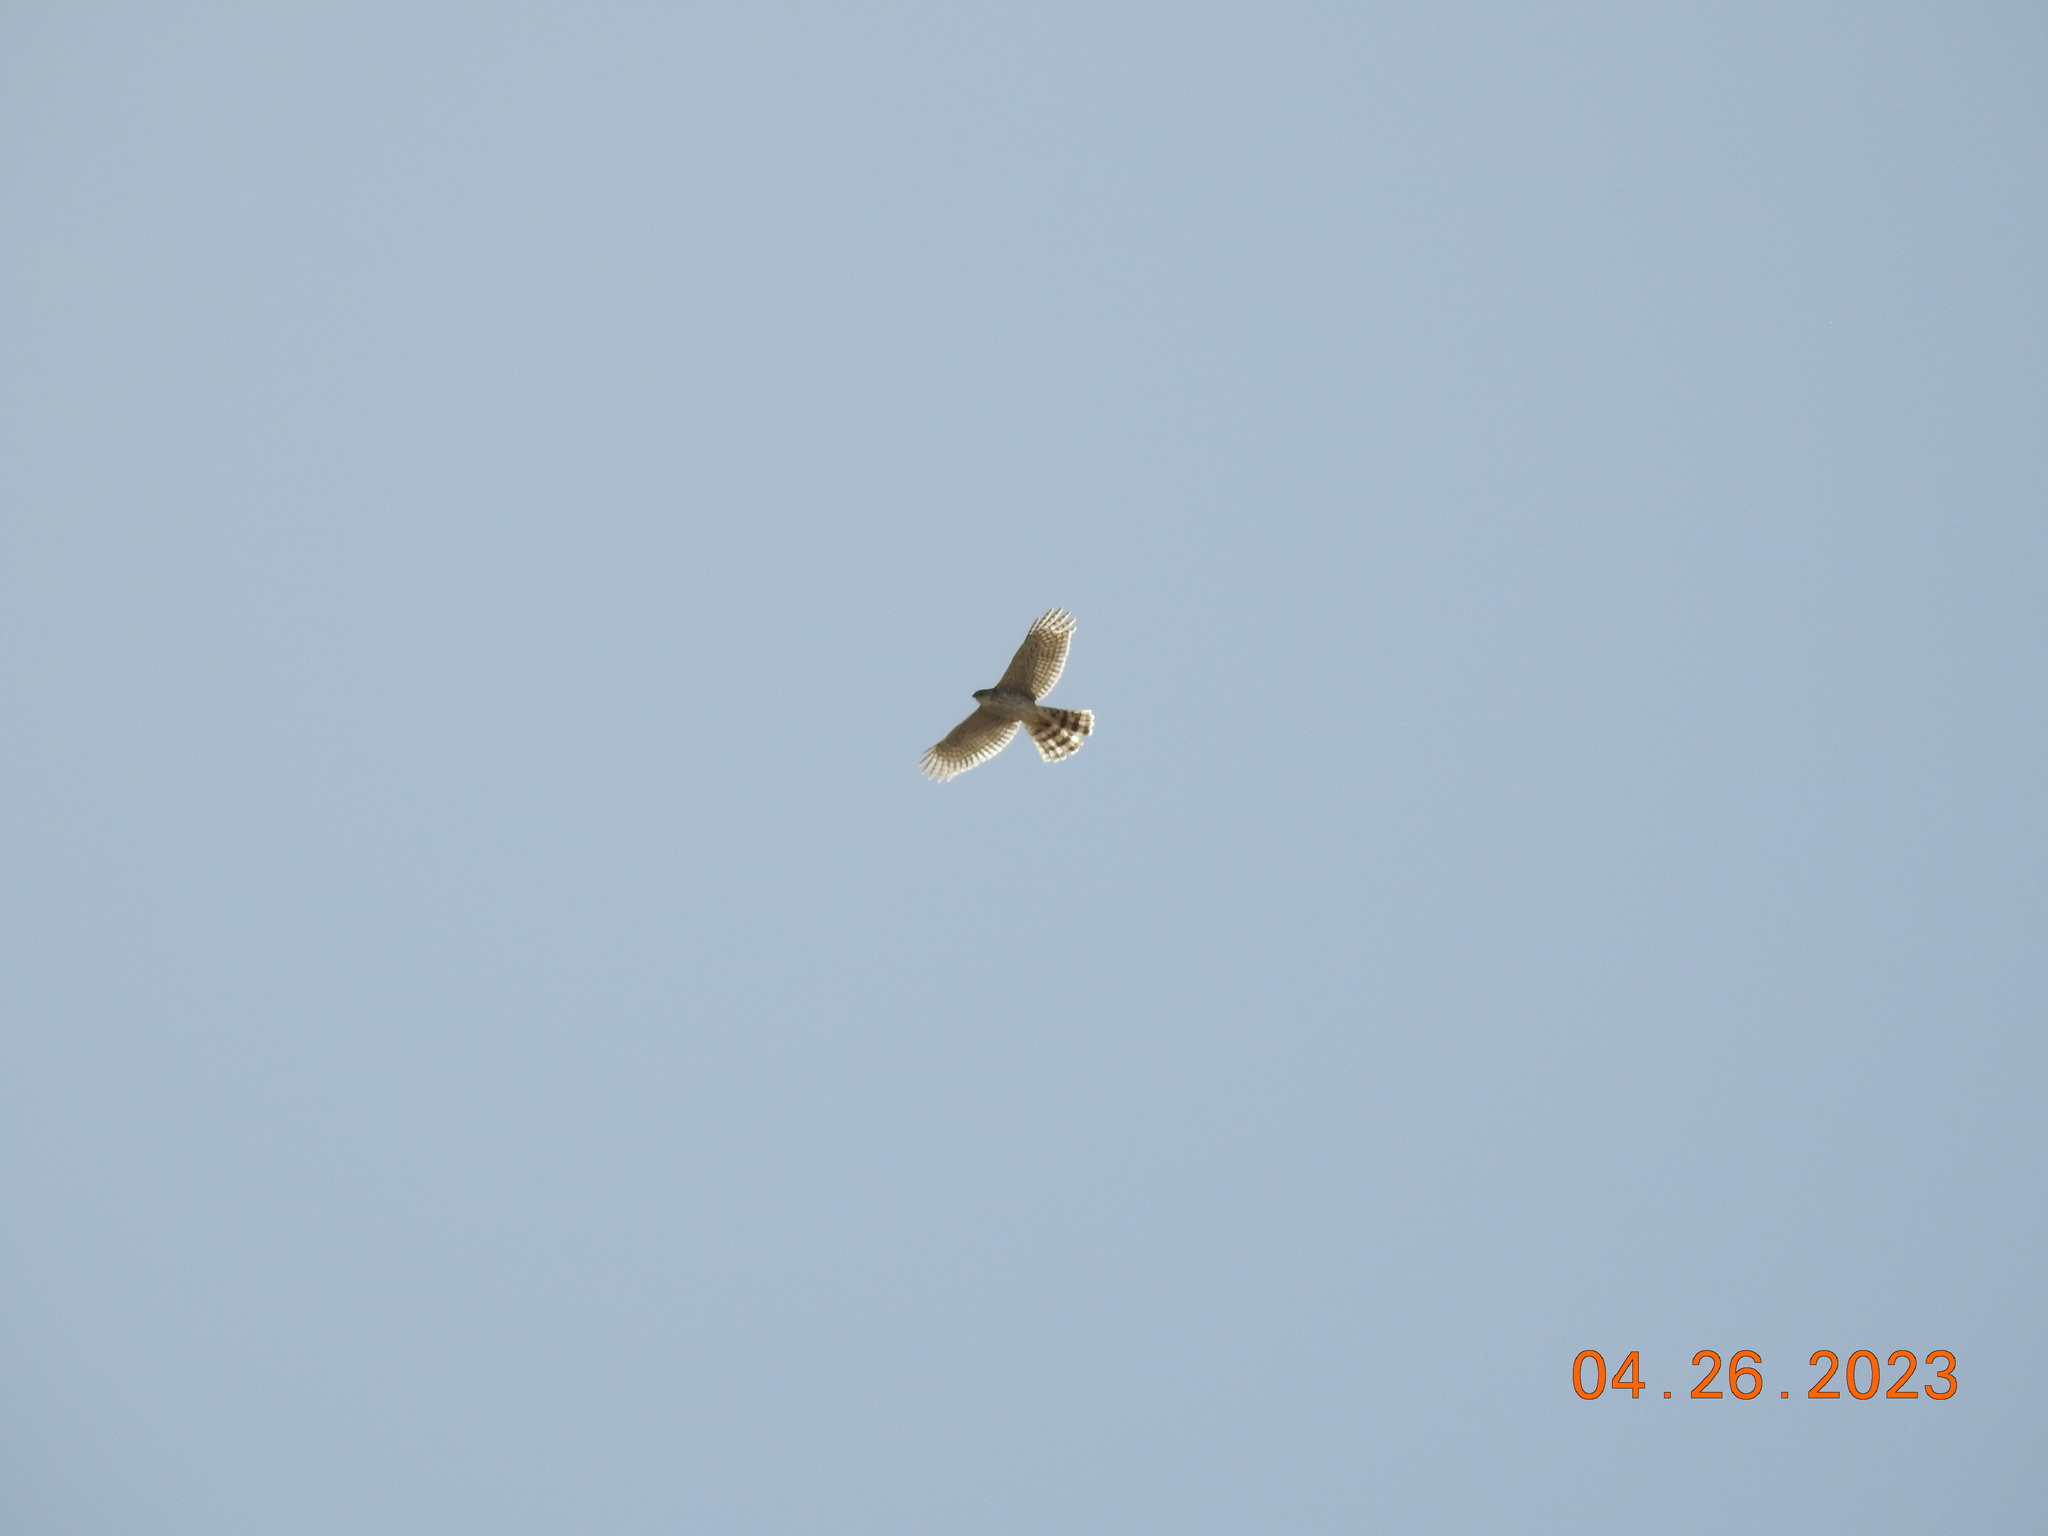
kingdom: Animalia
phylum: Chordata
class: Aves
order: Accipitriformes
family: Accipitridae
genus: Accipiter
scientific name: Accipiter cooperii
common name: Cooper's hawk
